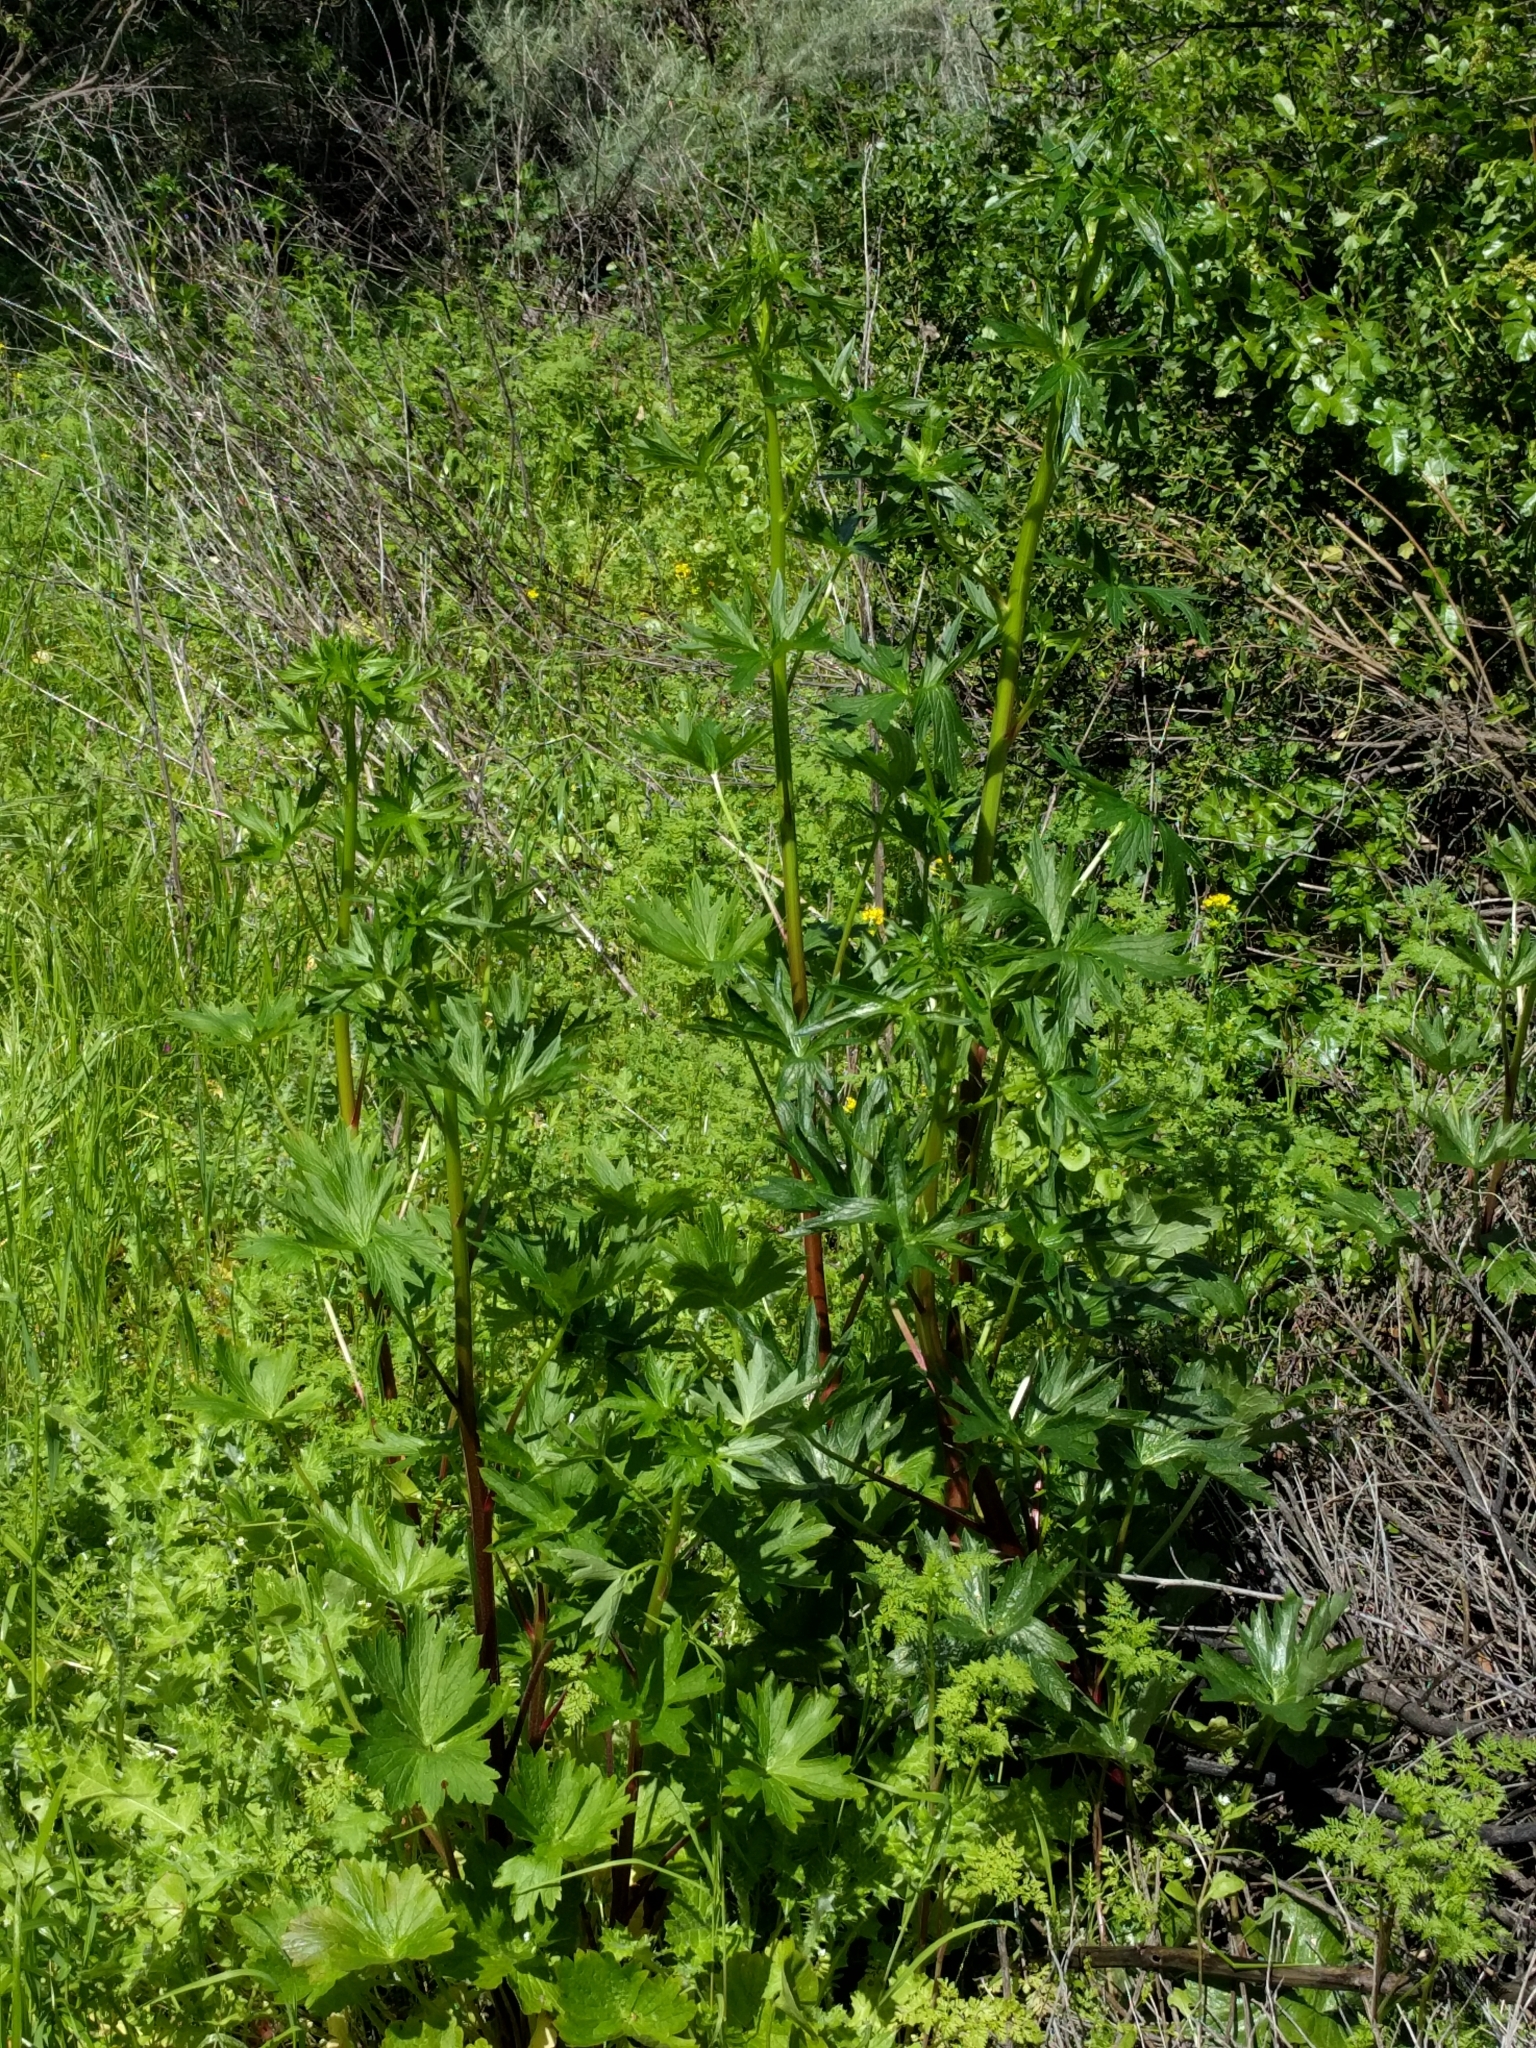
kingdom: Plantae
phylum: Tracheophyta
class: Magnoliopsida
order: Ranunculales
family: Ranunculaceae
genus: Delphinium
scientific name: Delphinium californicum
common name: California larkspur
